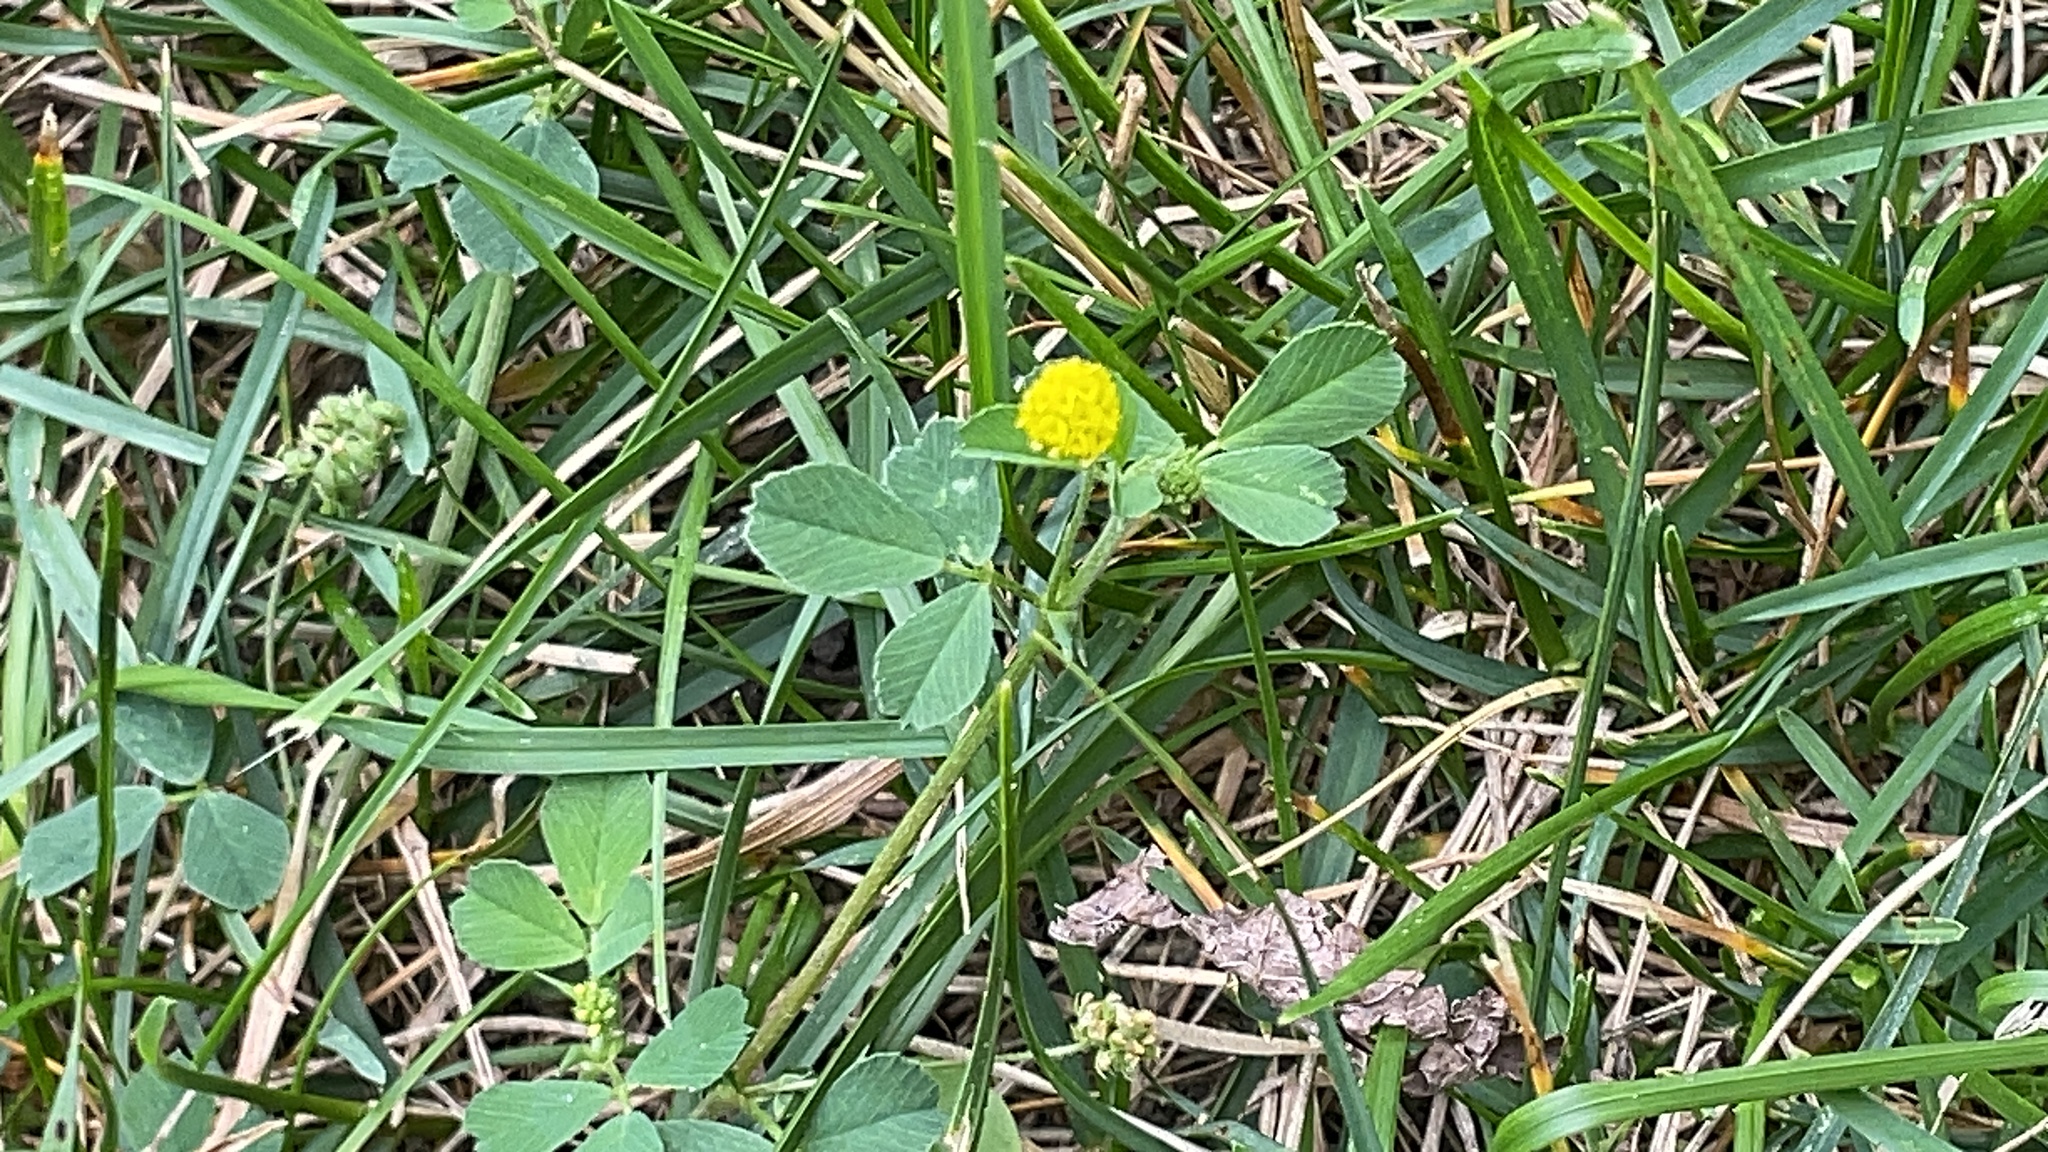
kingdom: Plantae
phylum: Tracheophyta
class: Magnoliopsida
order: Fabales
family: Fabaceae
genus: Medicago
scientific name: Medicago lupulina
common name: Black medick
